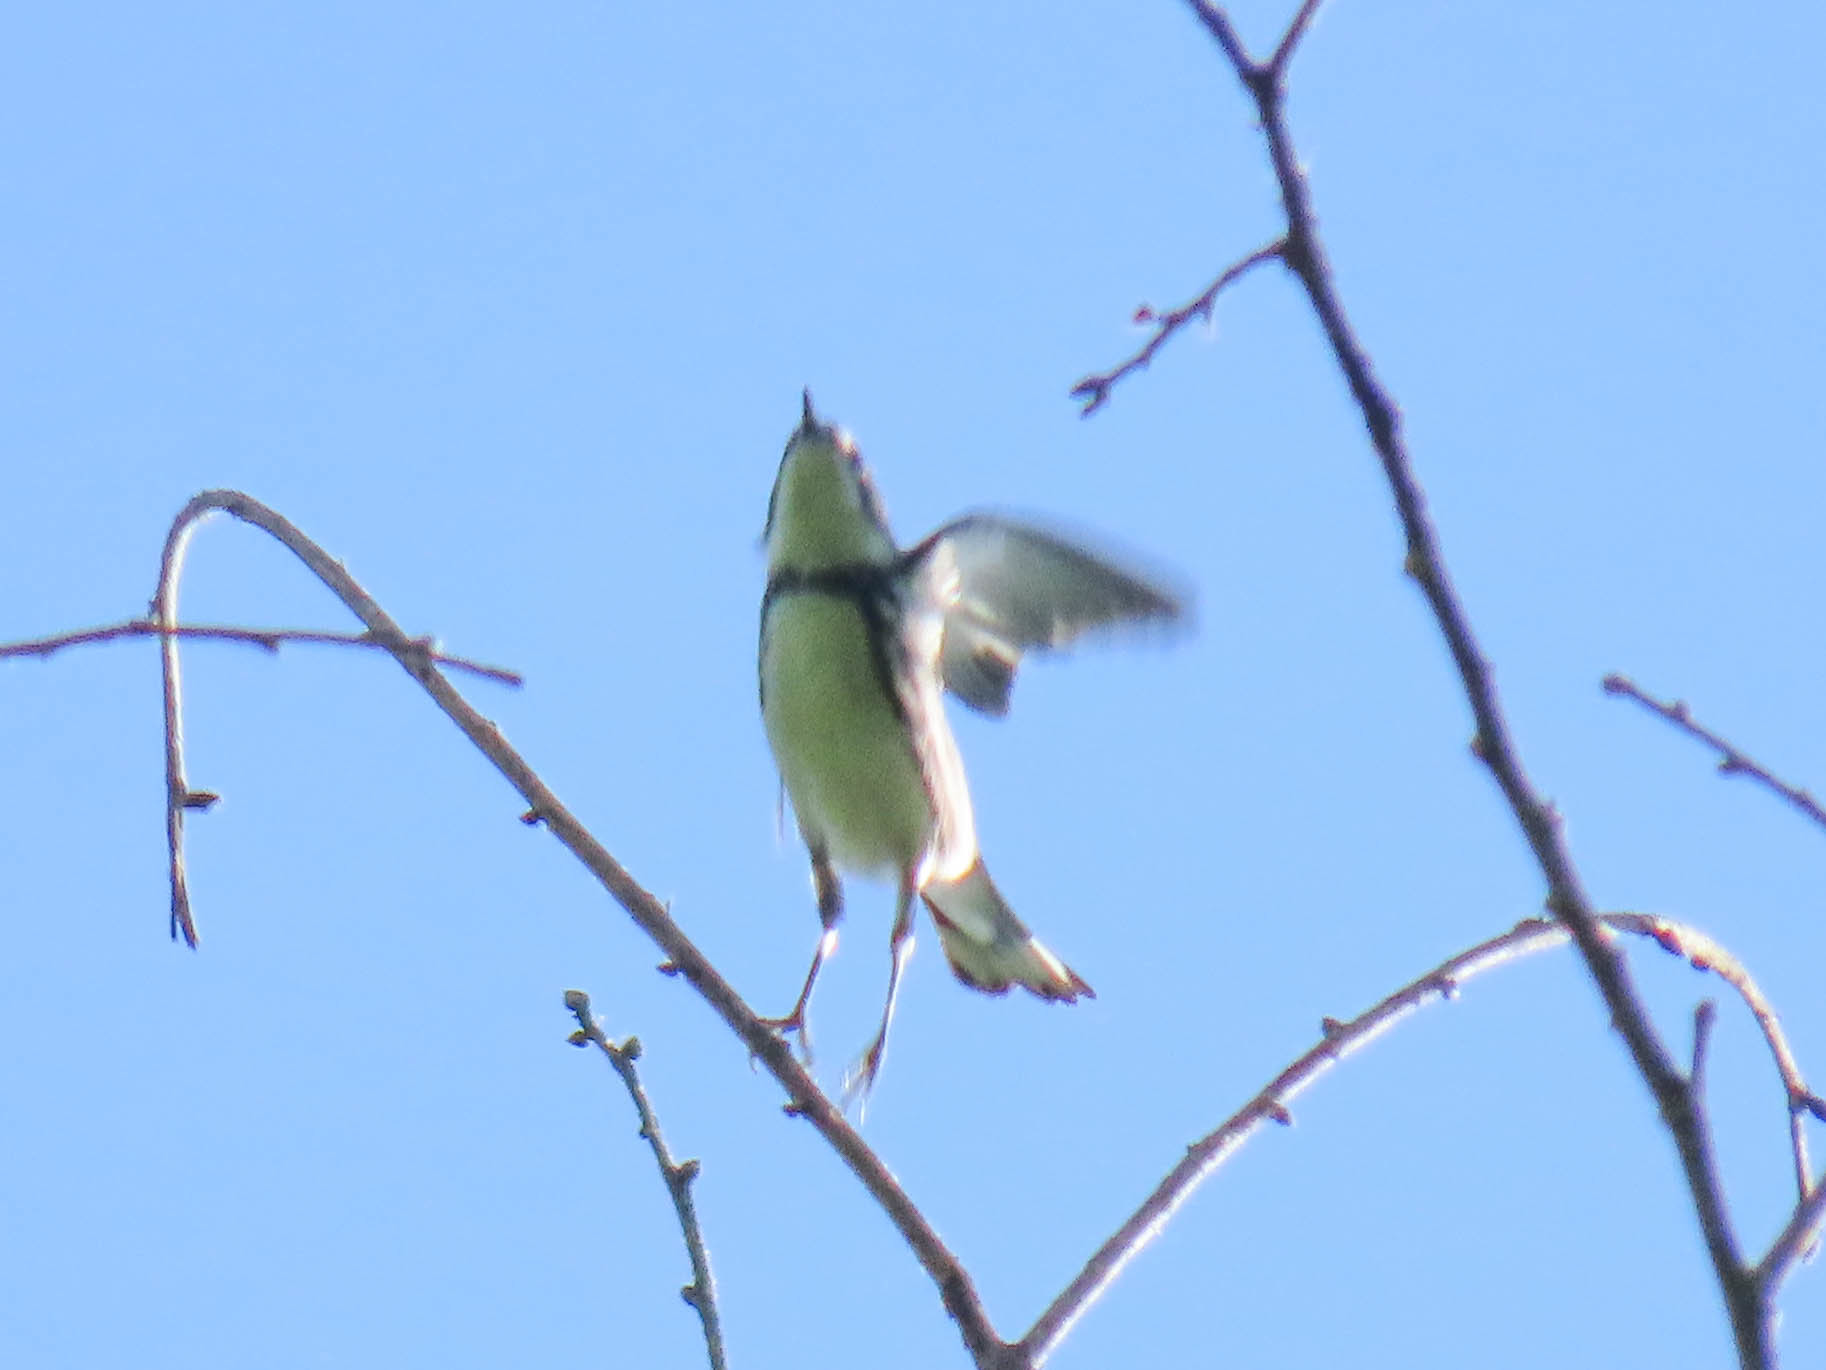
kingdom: Animalia
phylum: Chordata
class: Aves
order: Passeriformes
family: Parulidae
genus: Setophaga
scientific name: Setophaga cerulea
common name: Cerulean warbler
